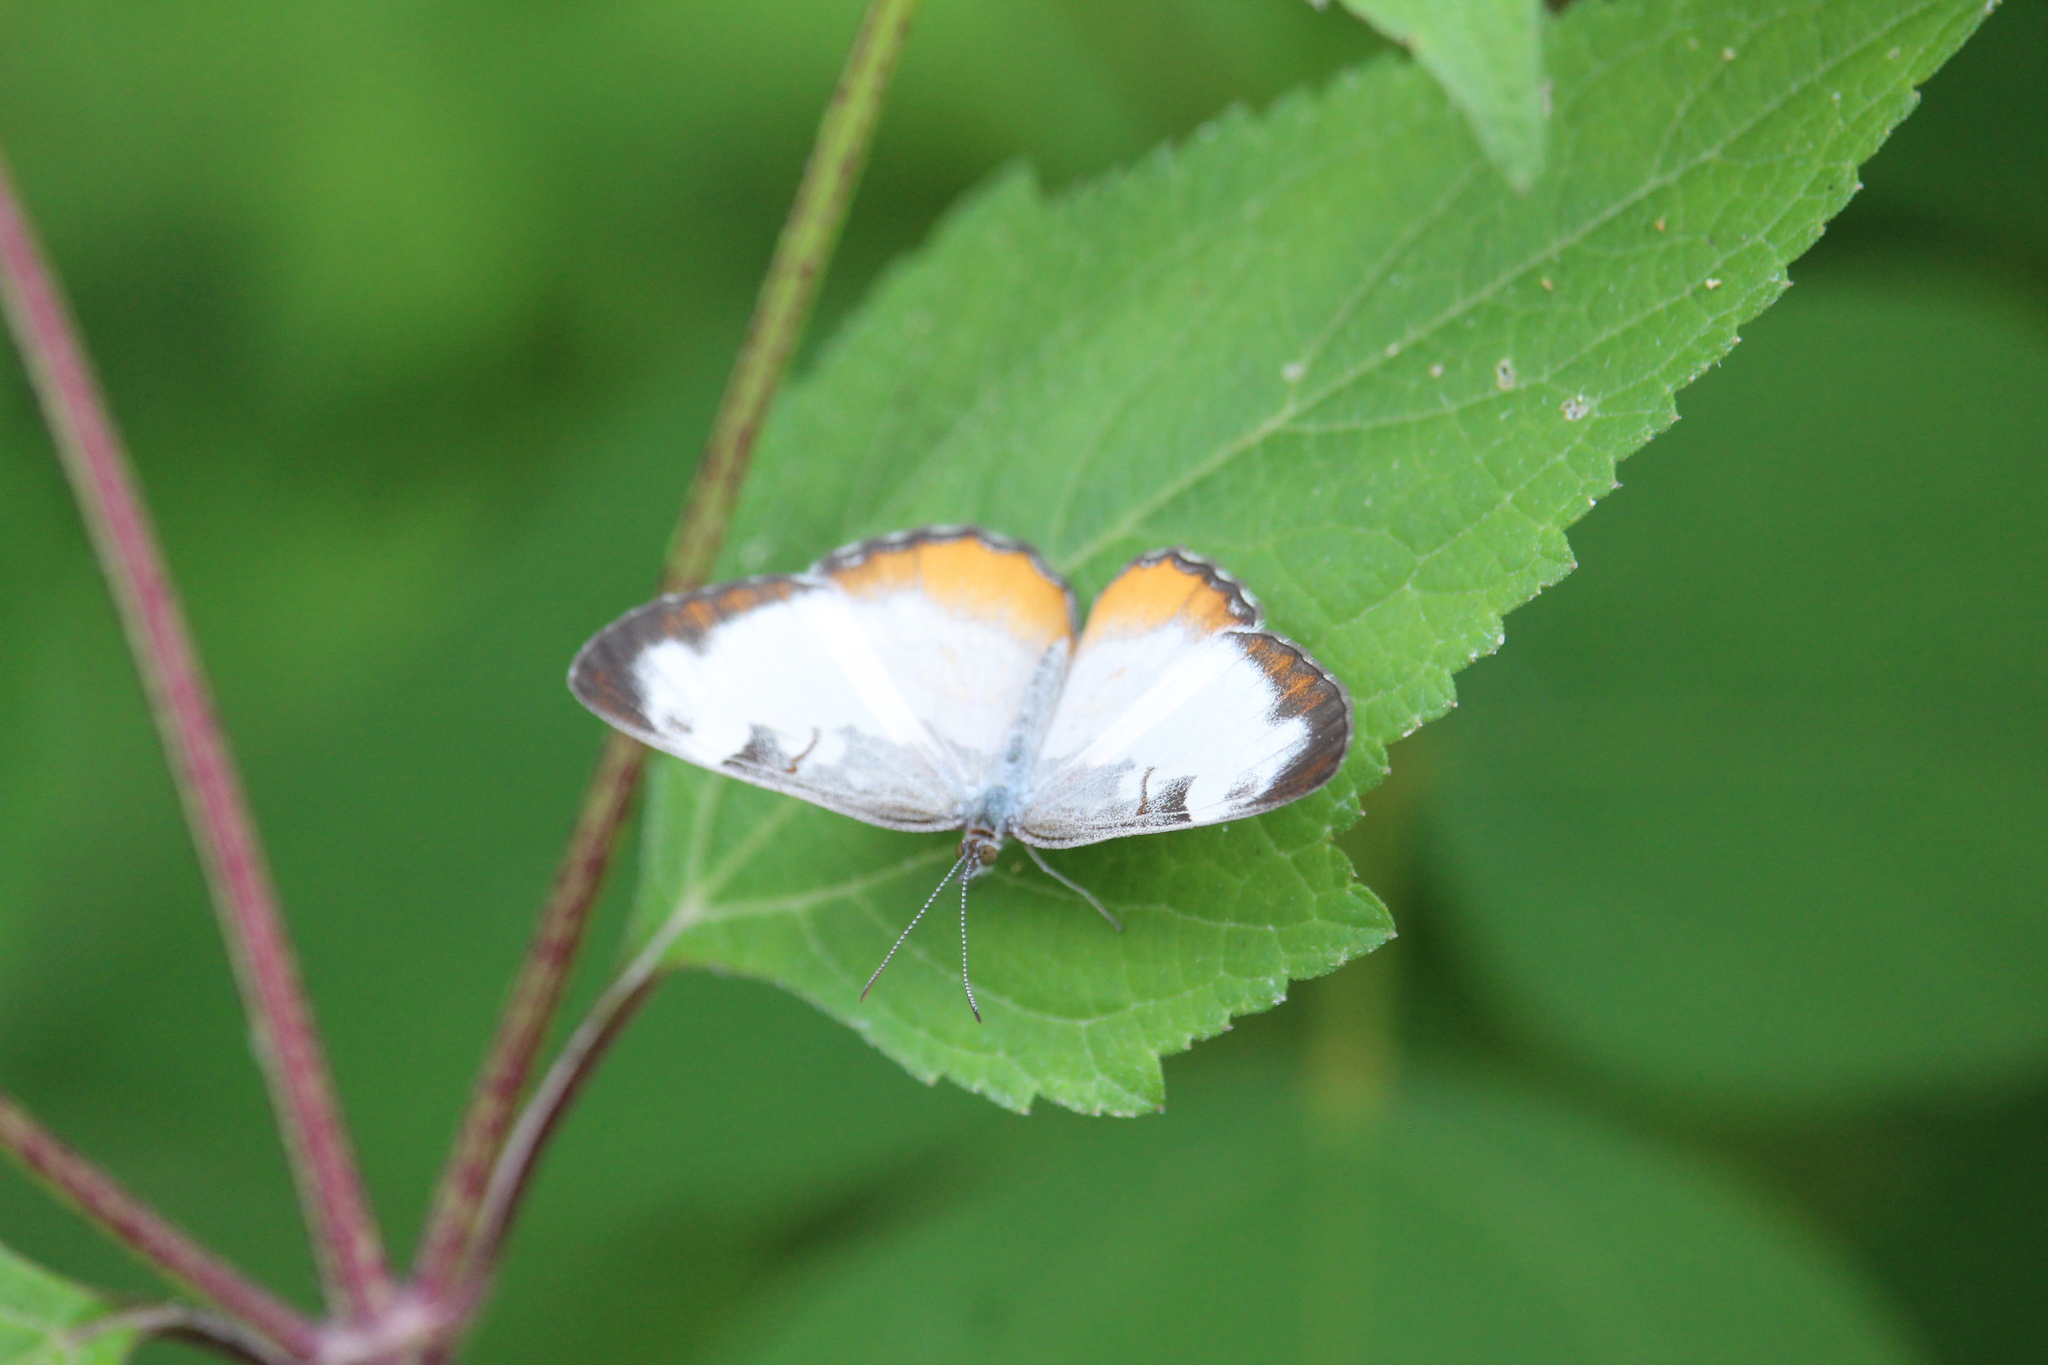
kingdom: Animalia
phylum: Arthropoda
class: Insecta
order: Lepidoptera
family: Nymphalidae
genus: Mestra
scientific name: Mestra amymone
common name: Common mestra
